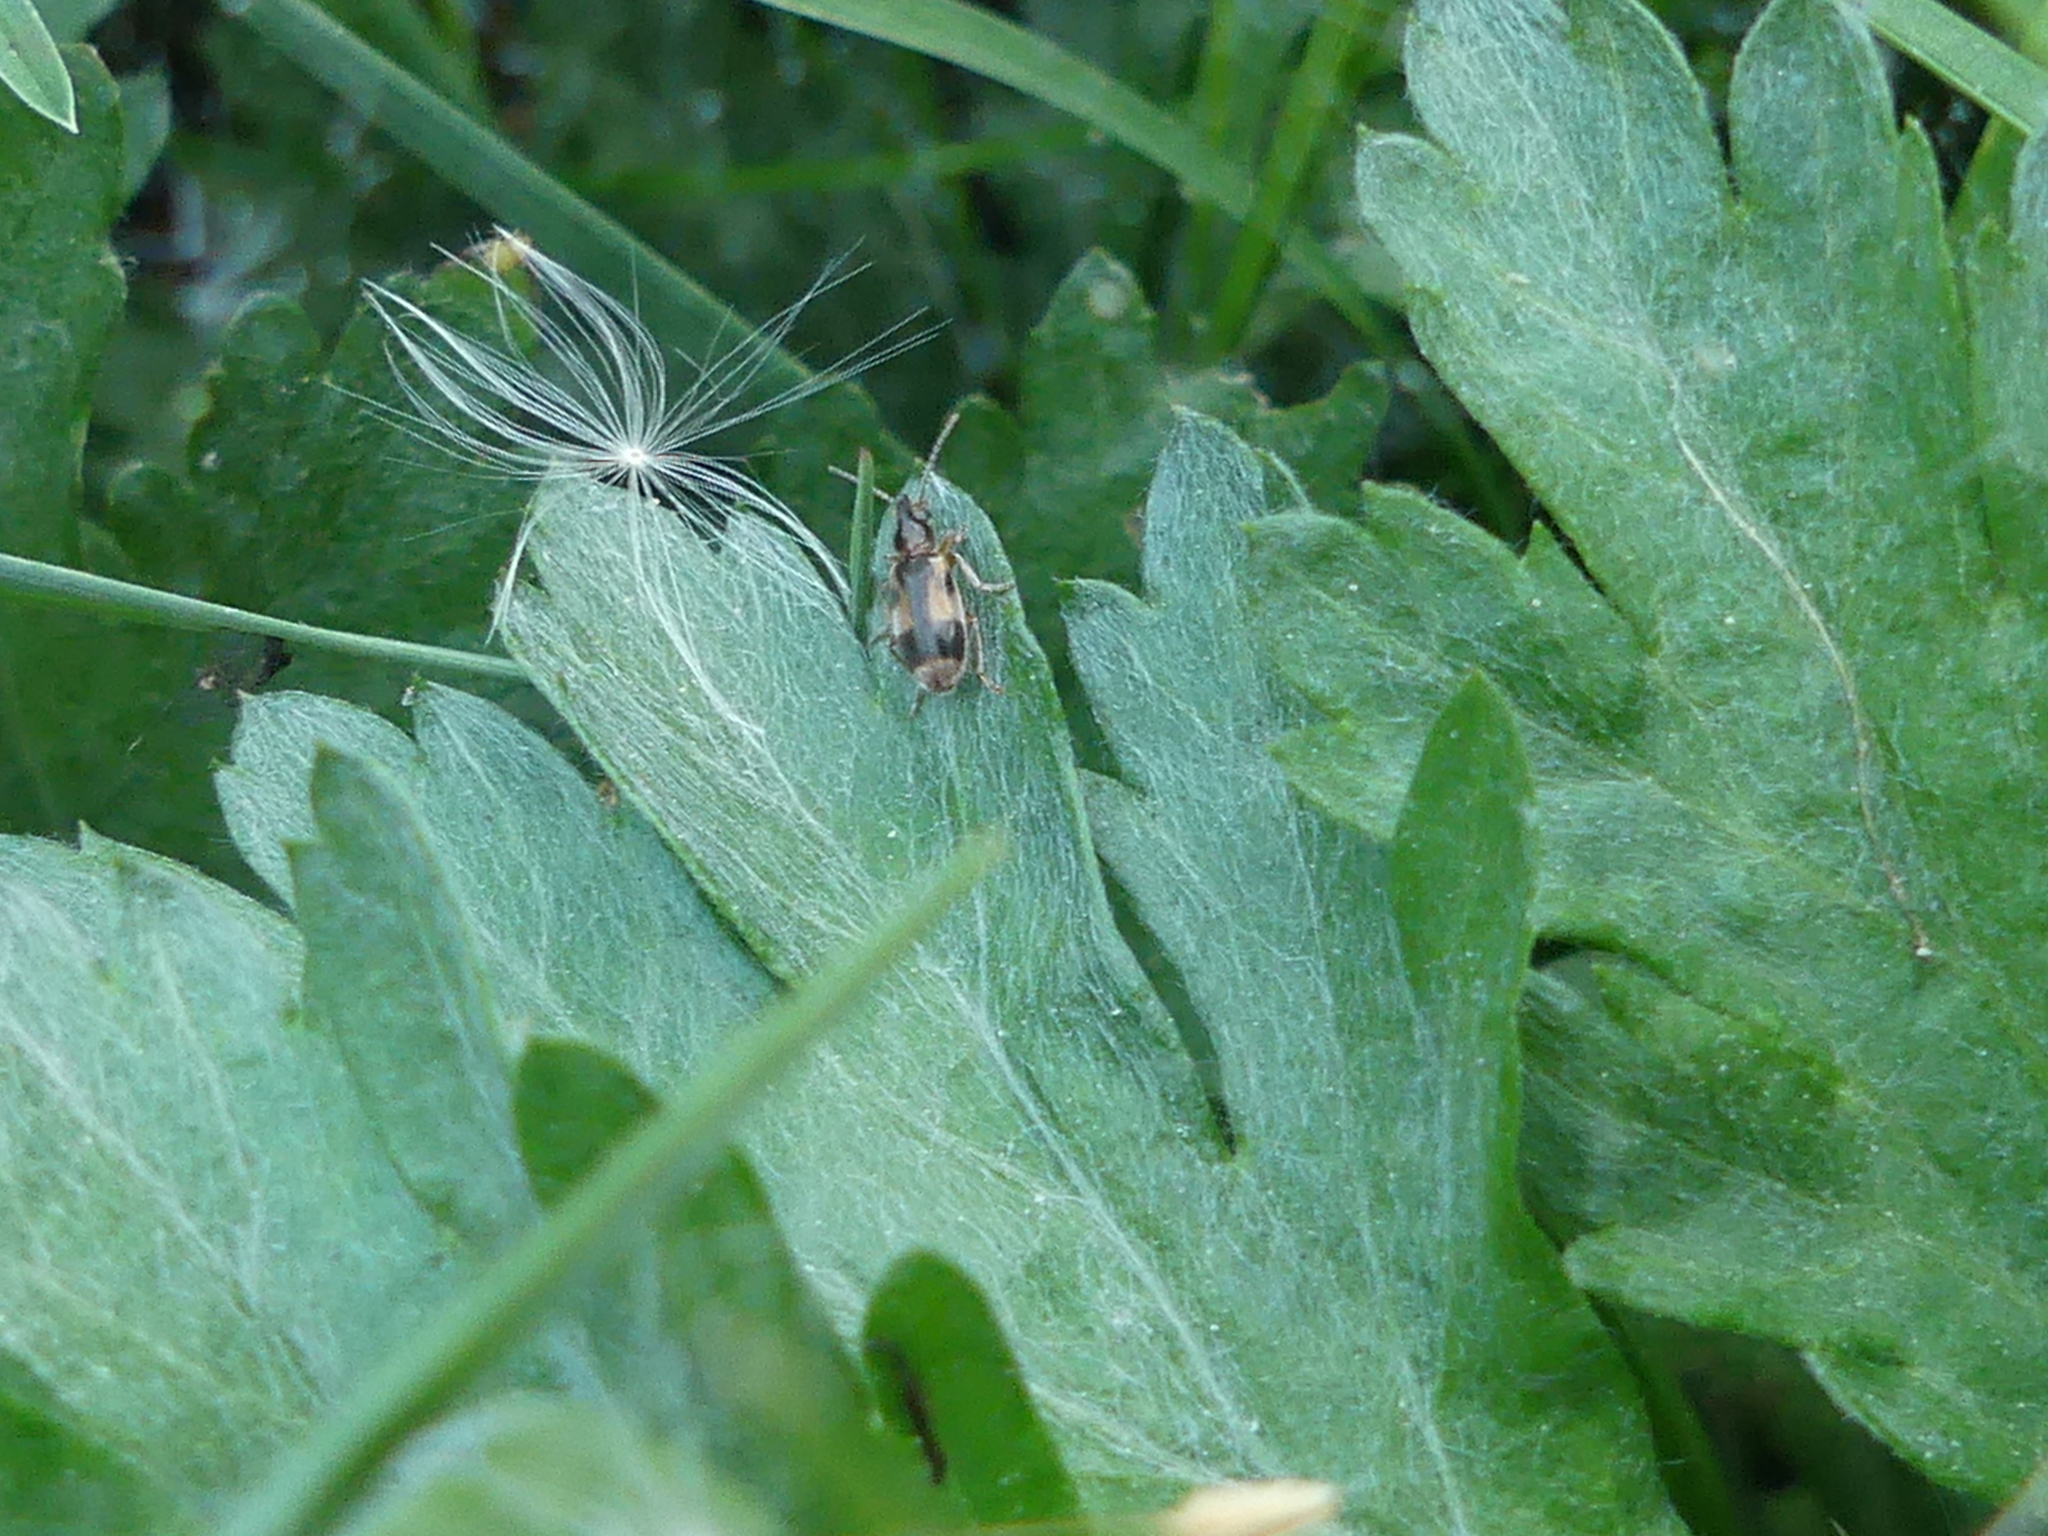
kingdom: Animalia
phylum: Arthropoda
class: Insecta
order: Coleoptera
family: Anthicidae
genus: Notoxus
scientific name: Notoxus monoceros
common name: Monoceros beetle
